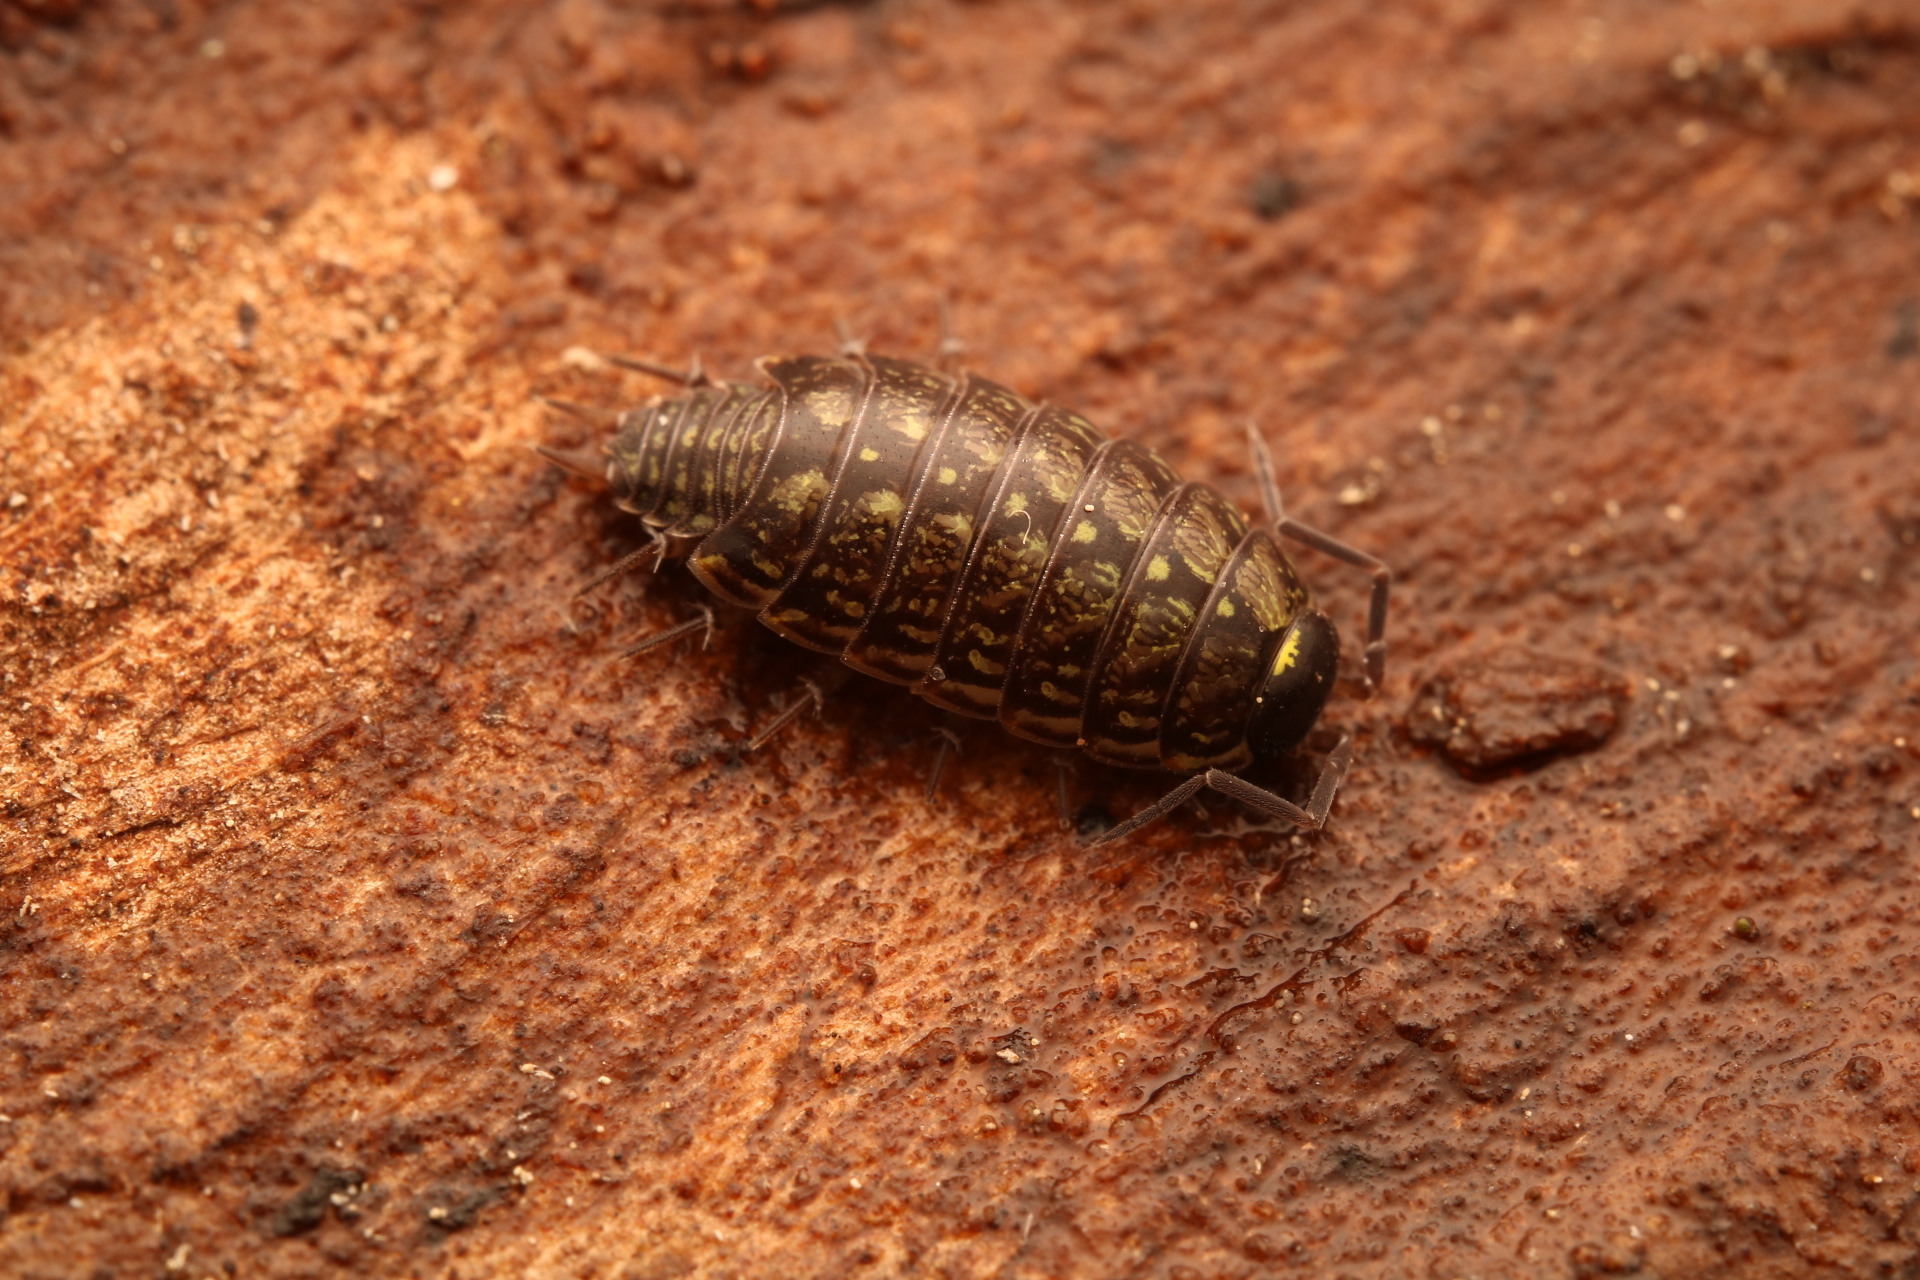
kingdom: Animalia
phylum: Arthropoda
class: Malacostraca
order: Isopoda
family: Philosciidae
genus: Philoscia
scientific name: Philoscia muscorum
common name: Common striped woodlouse
